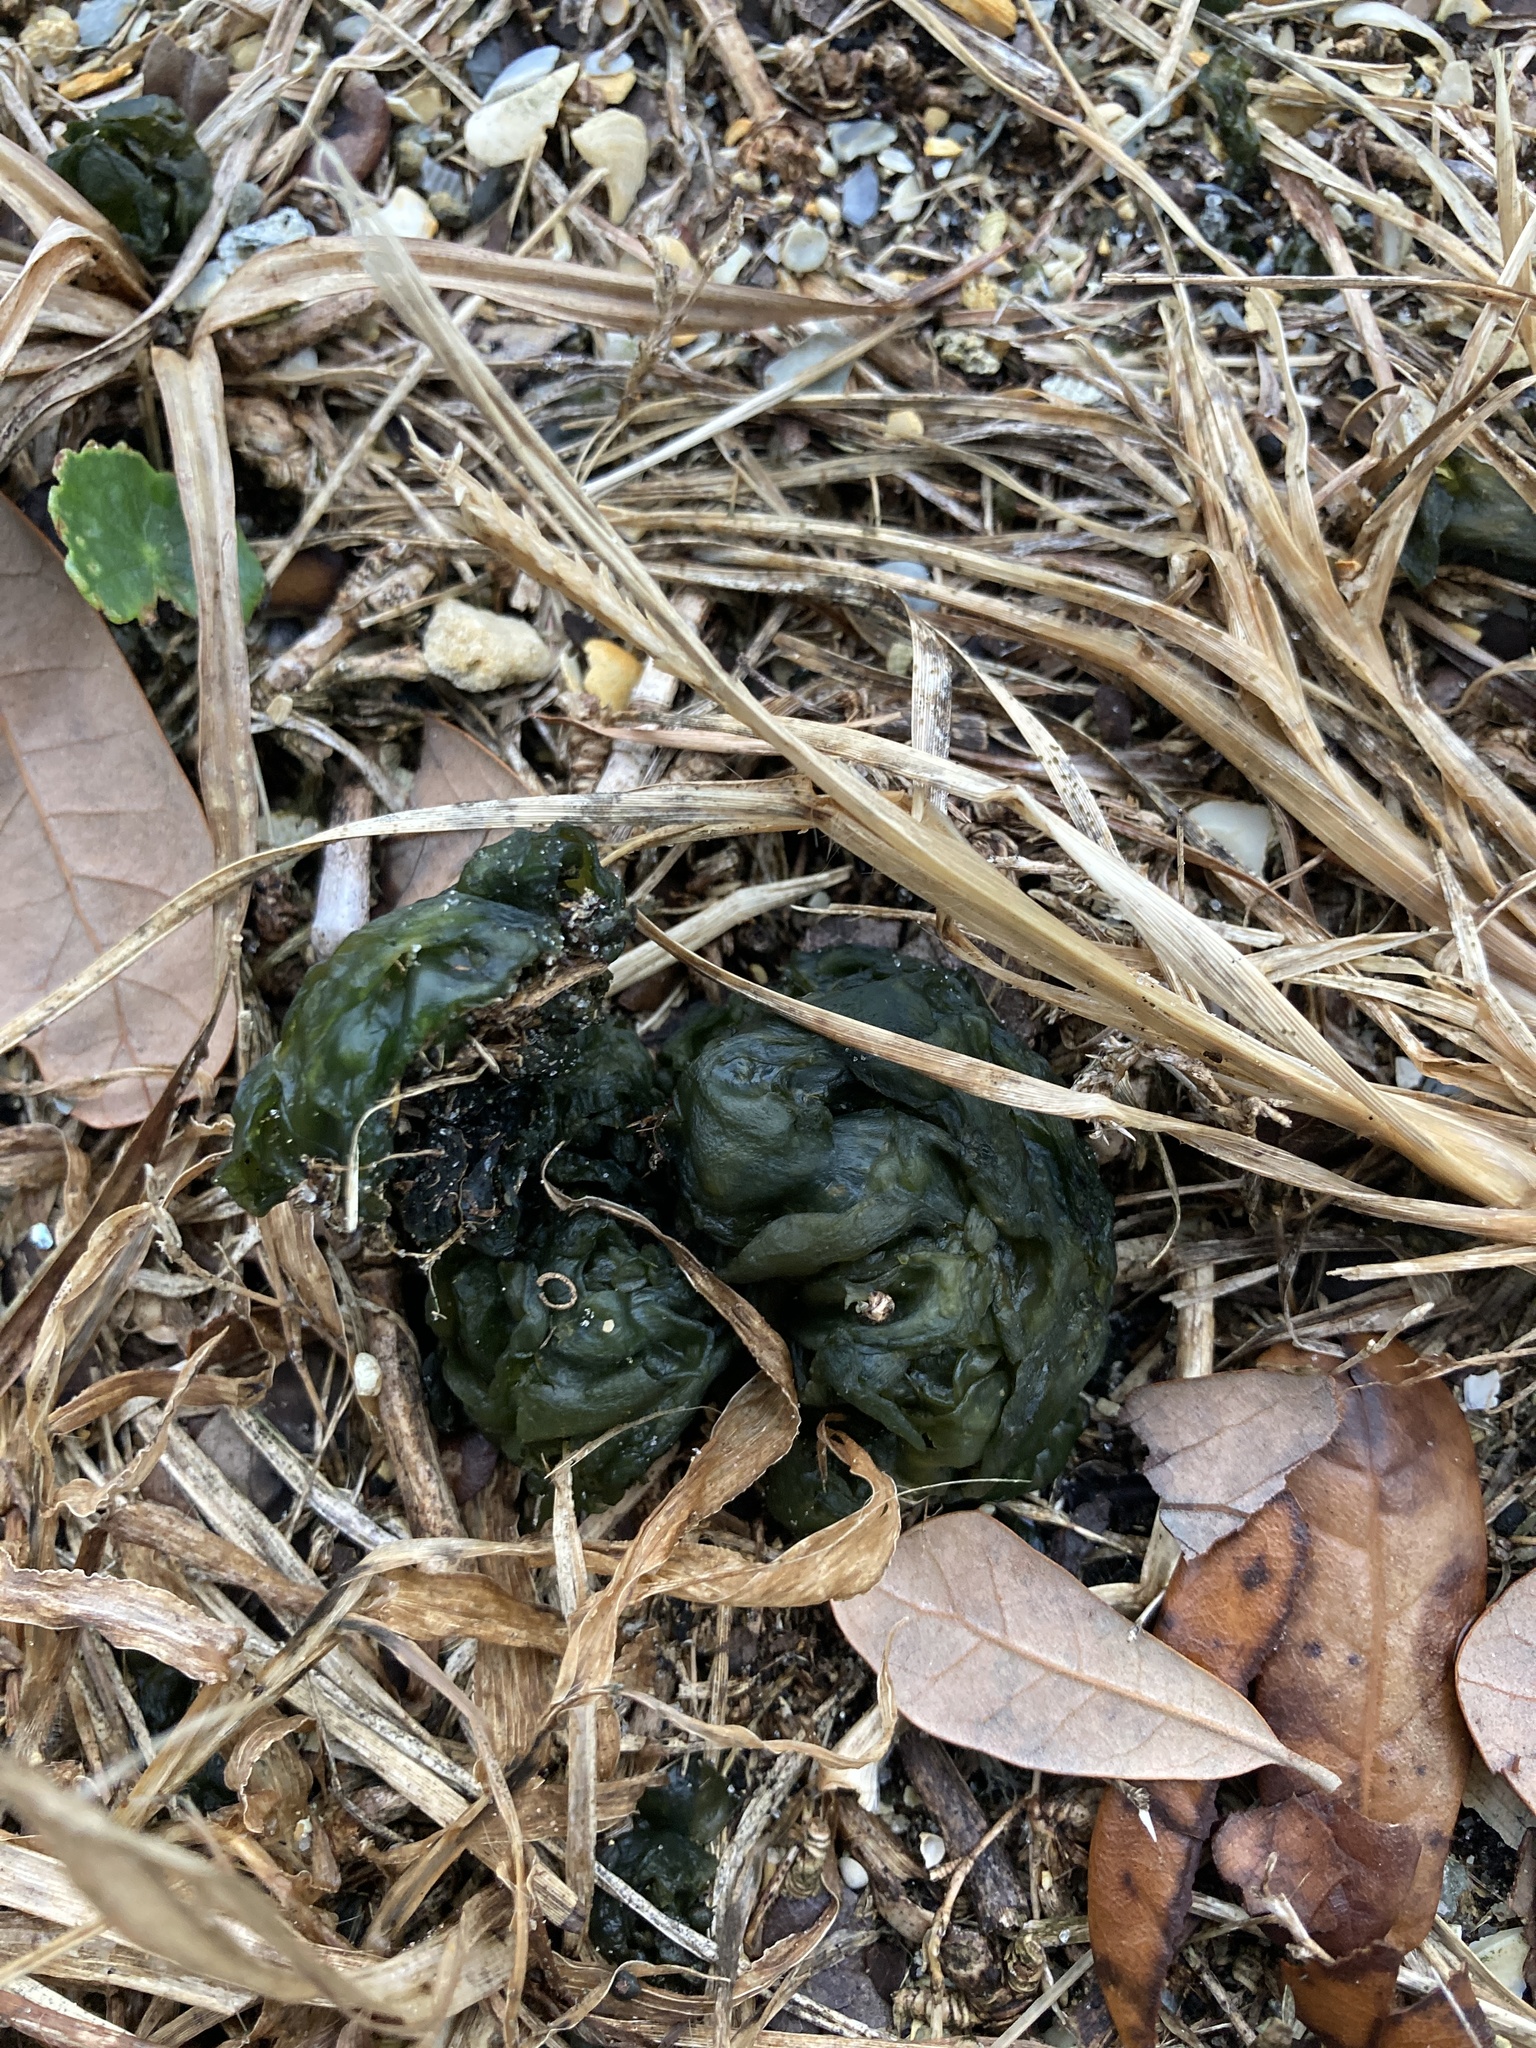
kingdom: Bacteria
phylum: Cyanobacteria
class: Cyanobacteriia
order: Cyanobacteriales
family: Nostocaceae
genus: Nostoc
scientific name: Nostoc commune
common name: Star jelly
